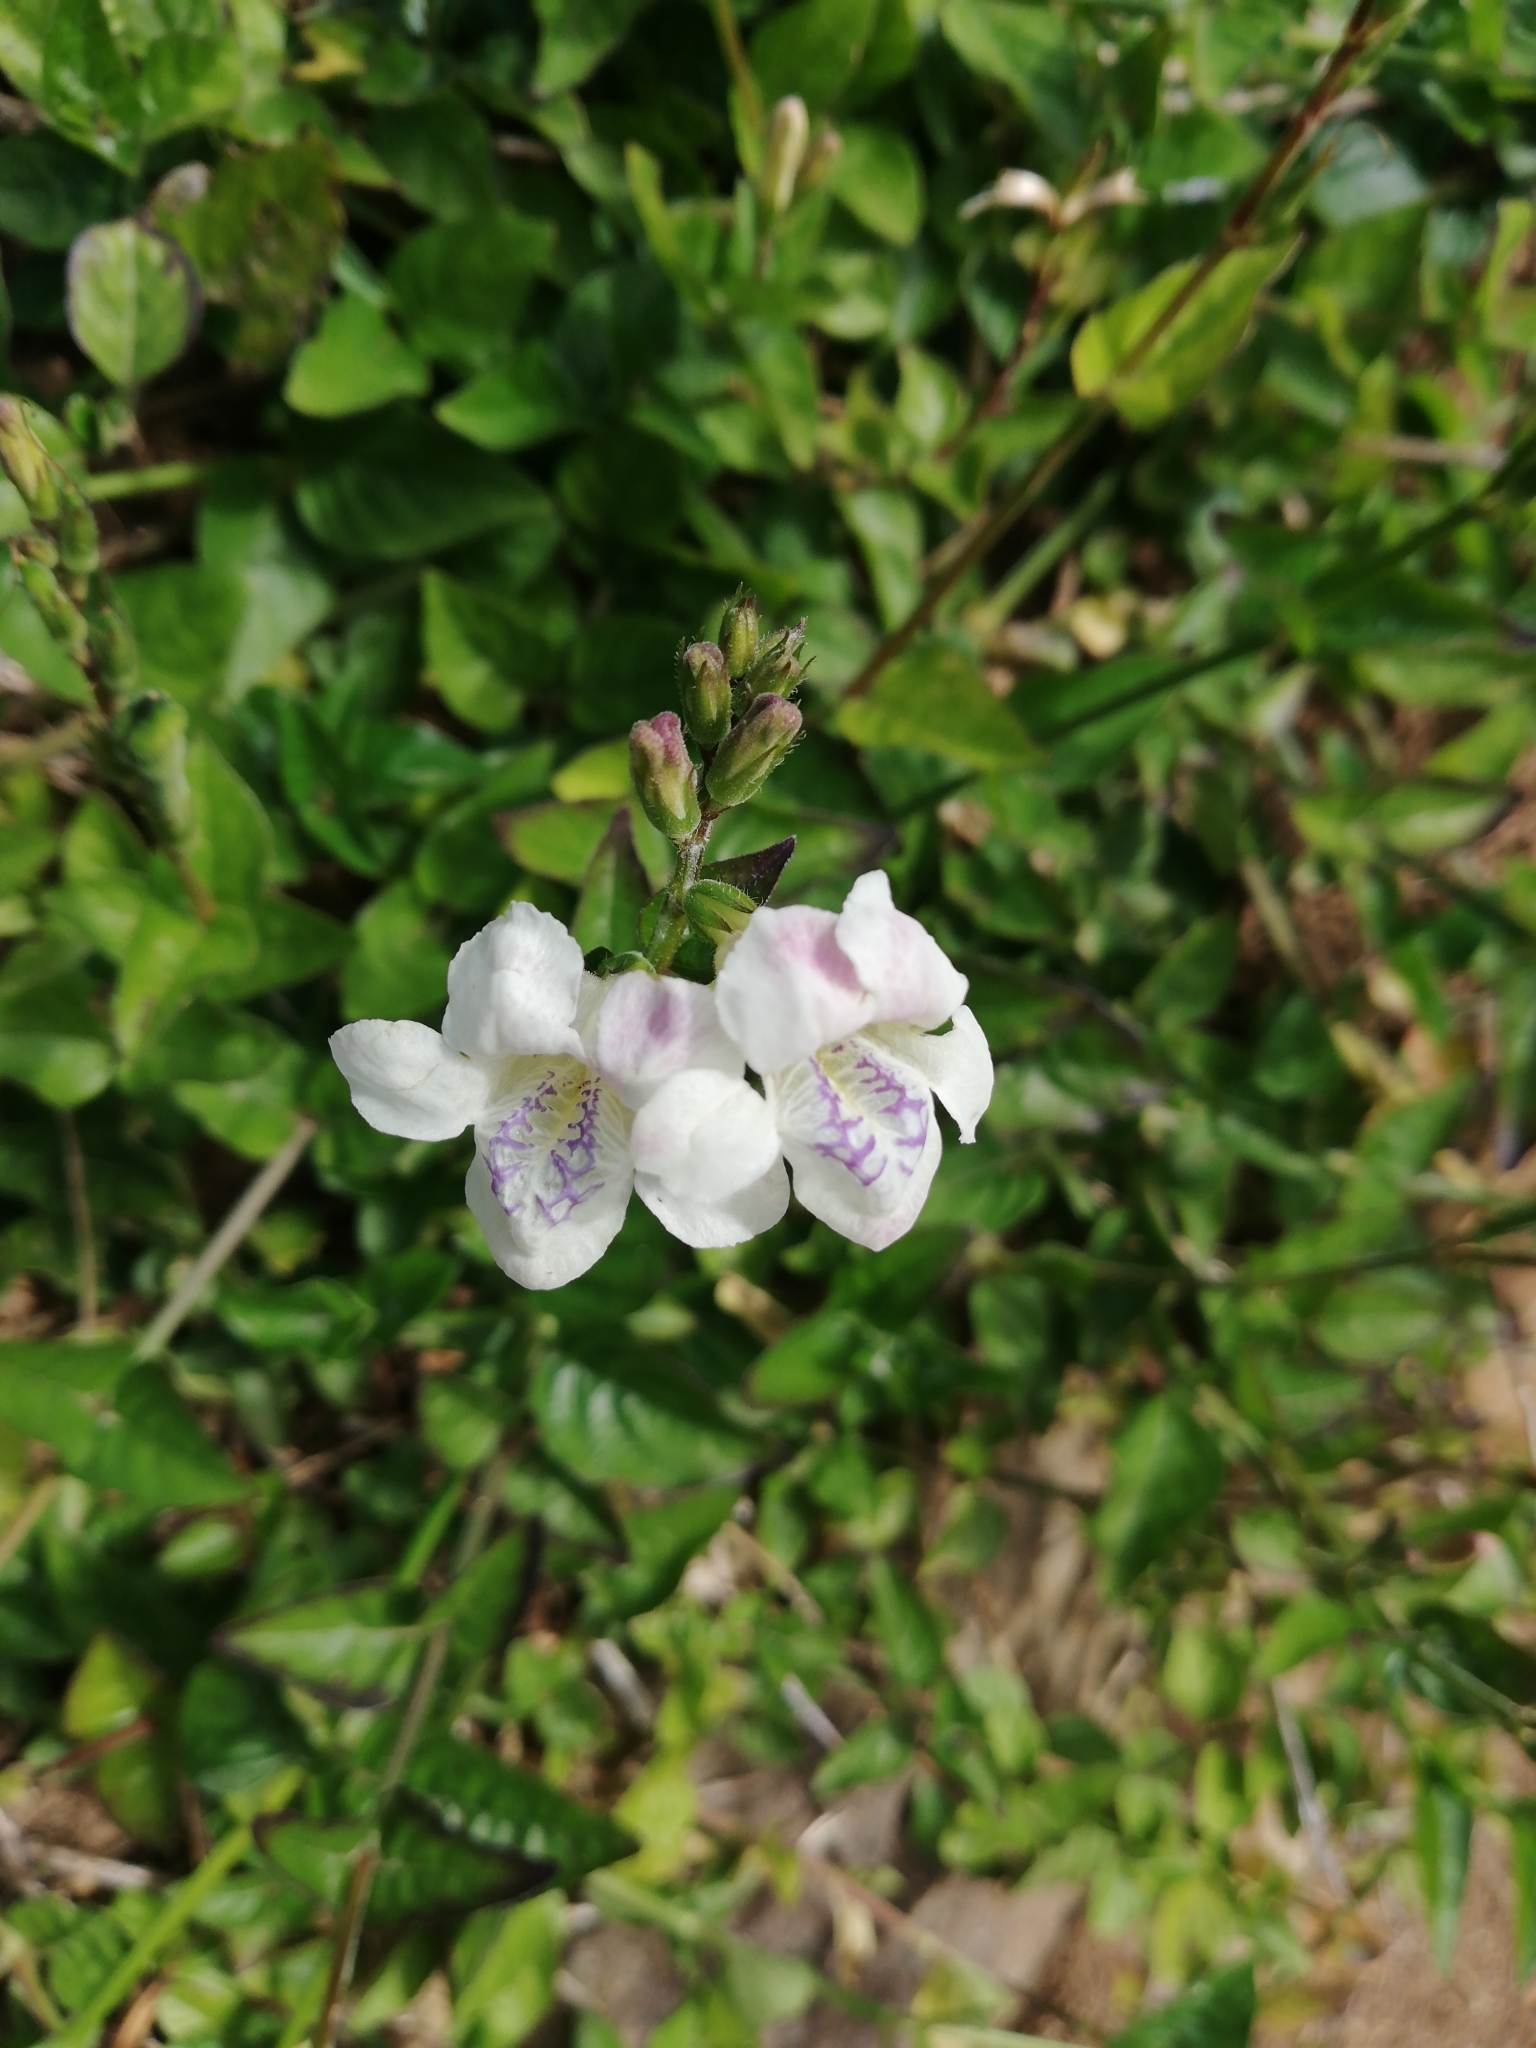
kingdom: Plantae
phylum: Tracheophyta
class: Magnoliopsida
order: Lamiales
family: Acanthaceae
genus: Asystasia
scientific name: Asystasia intrusa
